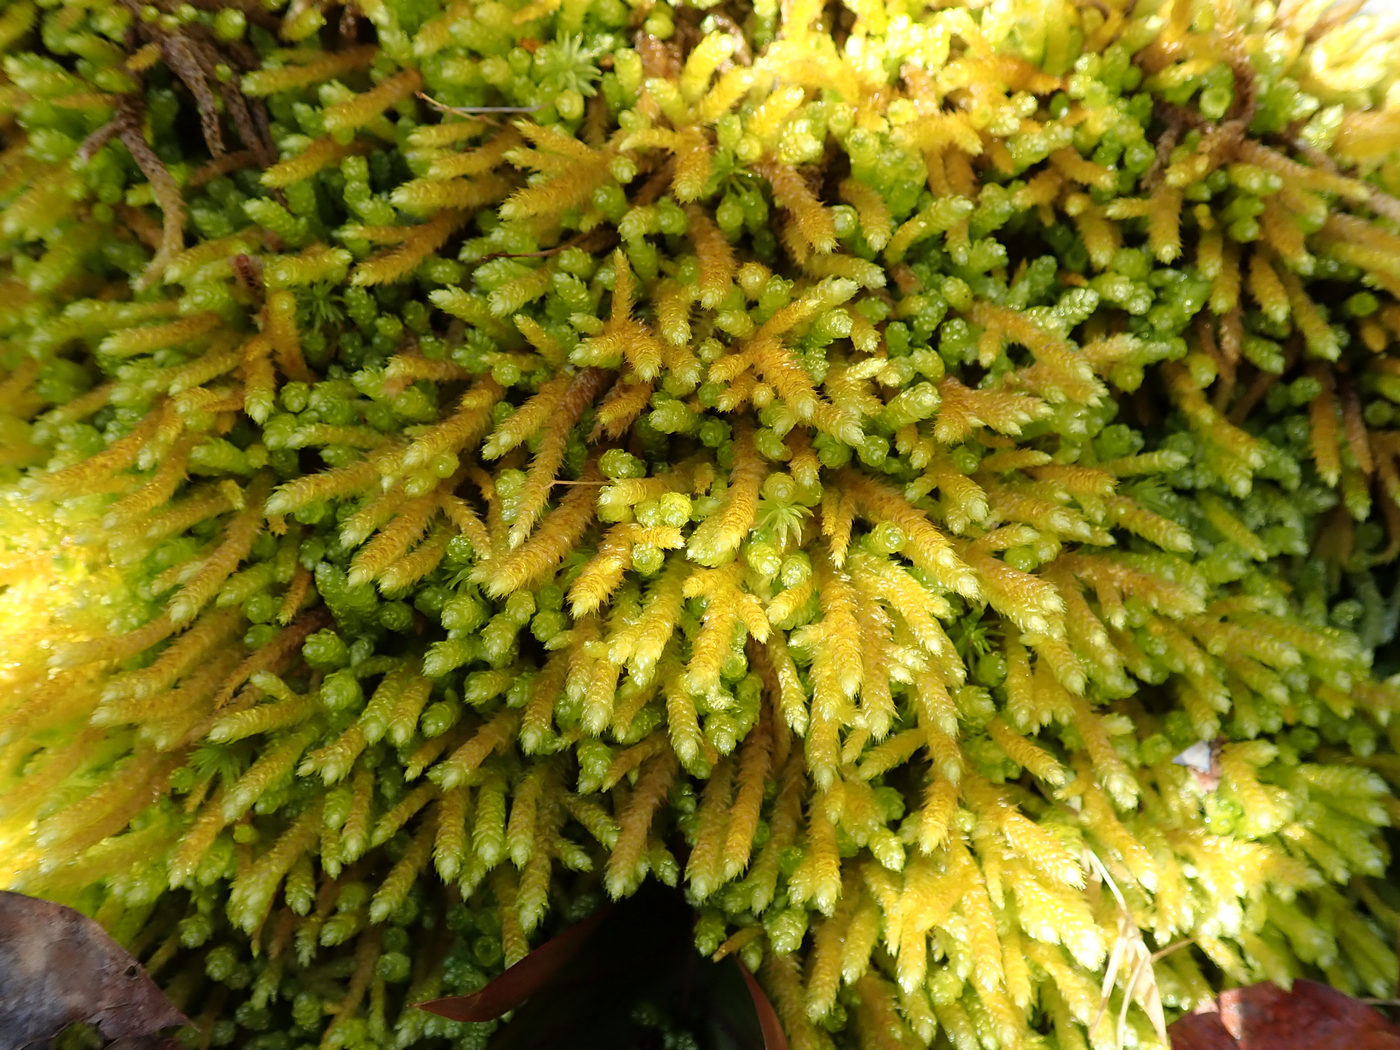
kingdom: Plantae
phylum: Bryophyta
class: Bryopsida
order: Hypnales
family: Brachytheciaceae
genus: Bryoandersonia
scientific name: Bryoandersonia illecebra
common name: Spoon-leaved moss
